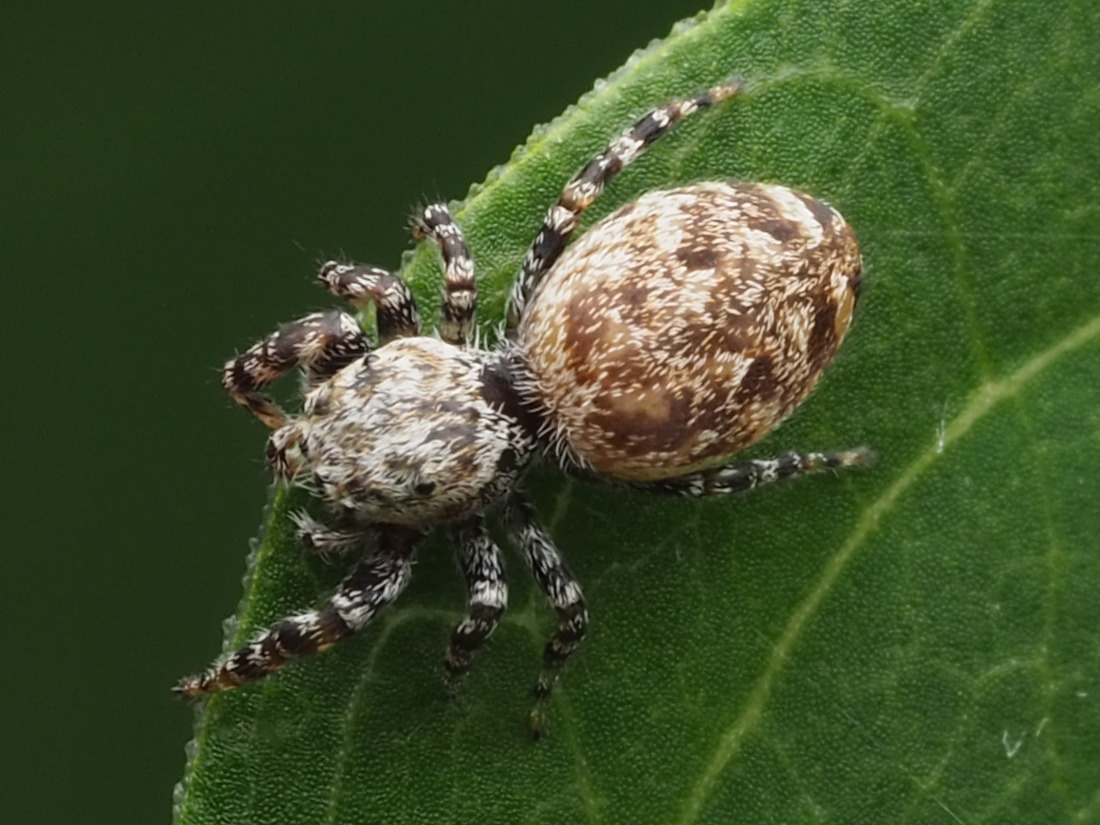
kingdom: Animalia
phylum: Arthropoda
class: Arachnida
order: Araneae
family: Salticidae
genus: Pelegrina
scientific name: Pelegrina galathea
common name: Jumping spiders
